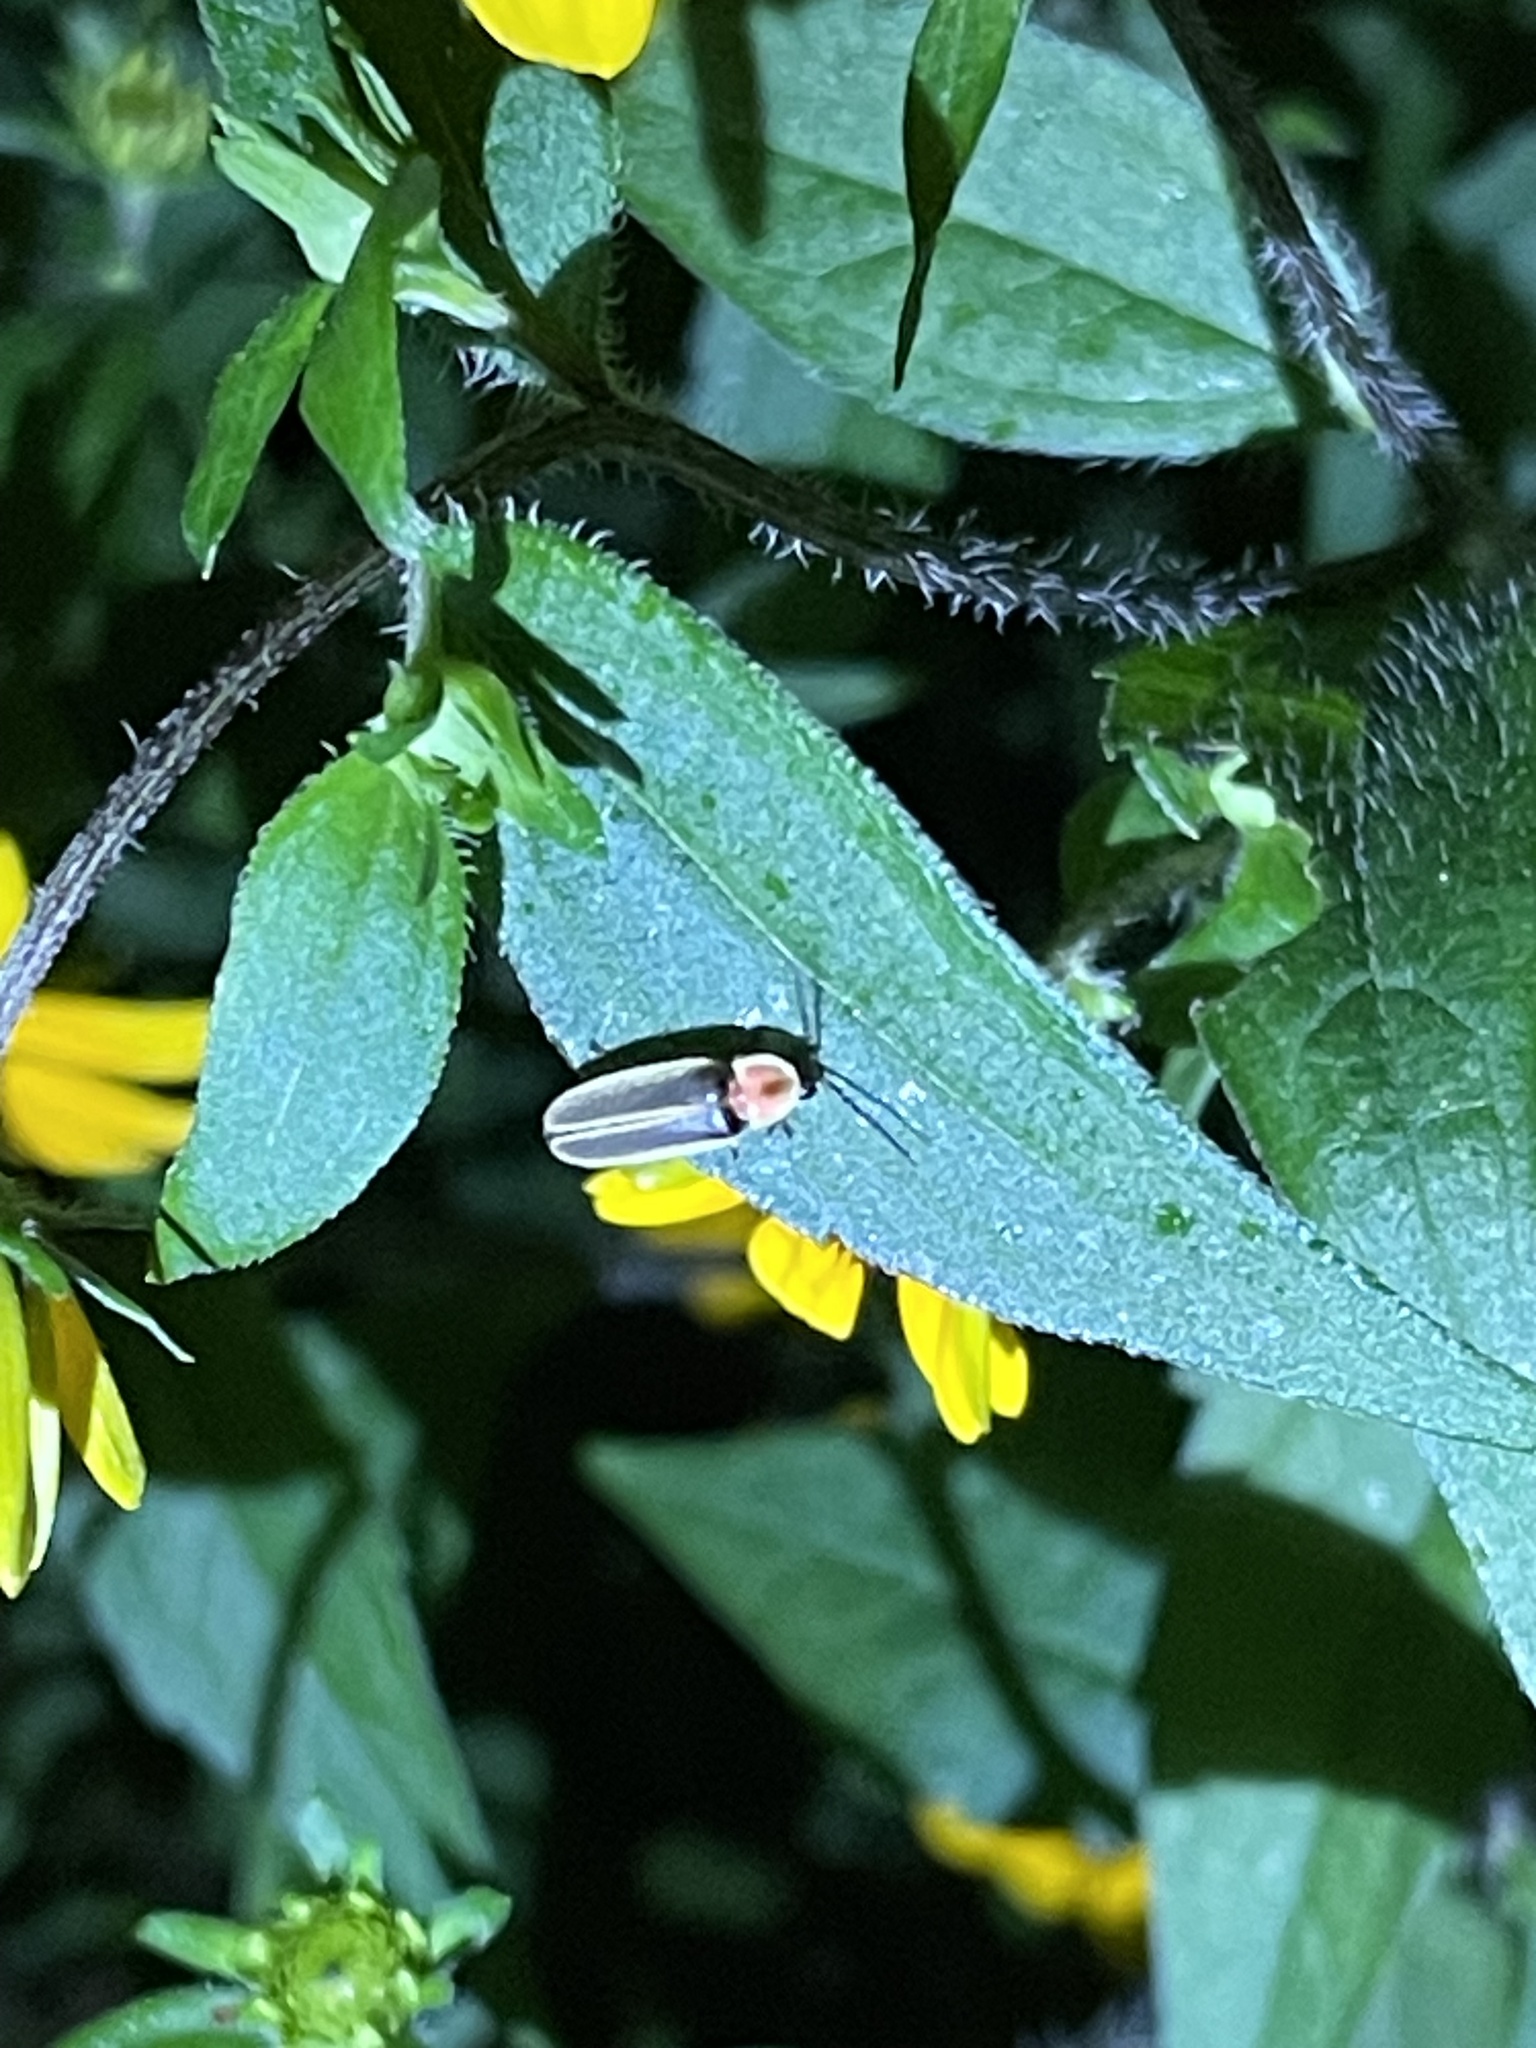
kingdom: Animalia
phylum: Arthropoda
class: Insecta
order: Coleoptera
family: Lampyridae
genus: Photinus
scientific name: Photinus pyralis
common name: Big dipper firefly
